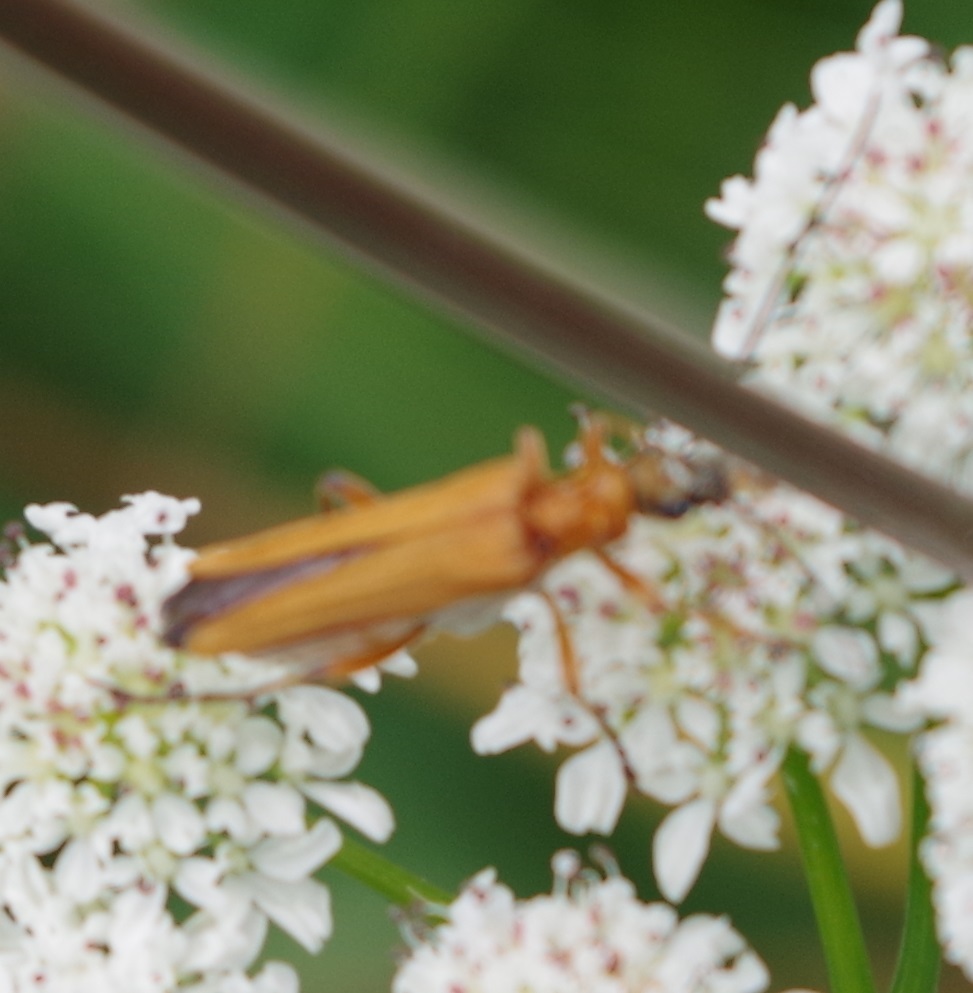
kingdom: Animalia
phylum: Arthropoda
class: Insecta
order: Coleoptera
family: Oedemeridae
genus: Oedemera
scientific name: Oedemera podagrariae
